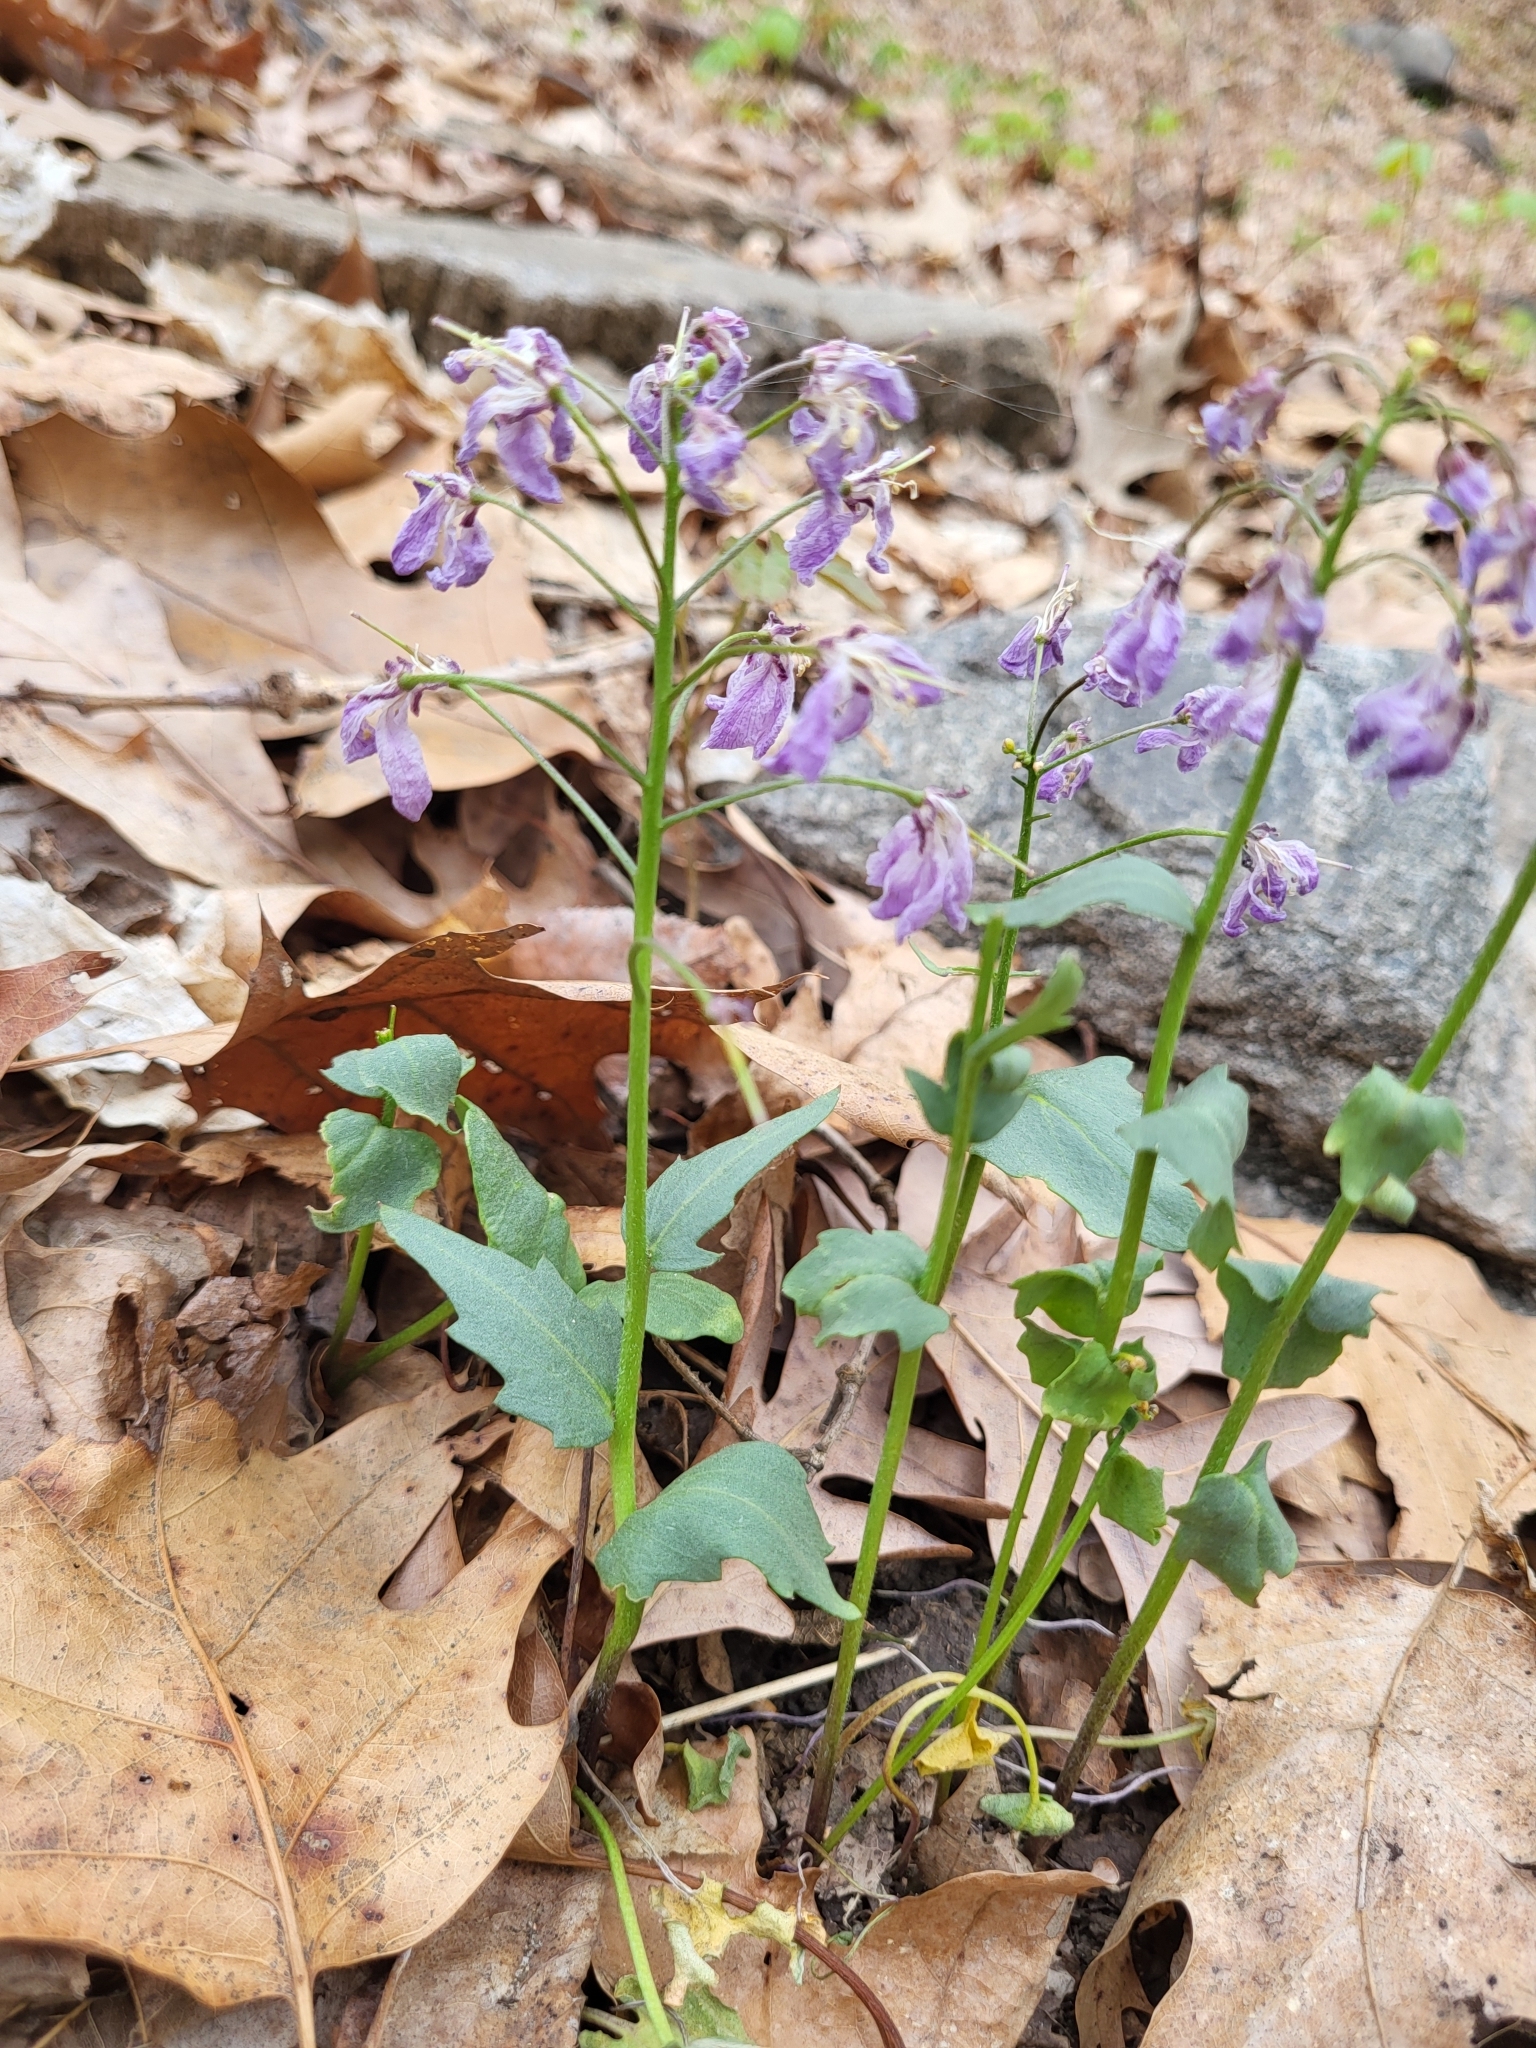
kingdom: Plantae
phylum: Tracheophyta
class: Magnoliopsida
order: Brassicales
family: Brassicaceae
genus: Cardamine
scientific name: Cardamine douglassii
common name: Purple cress
